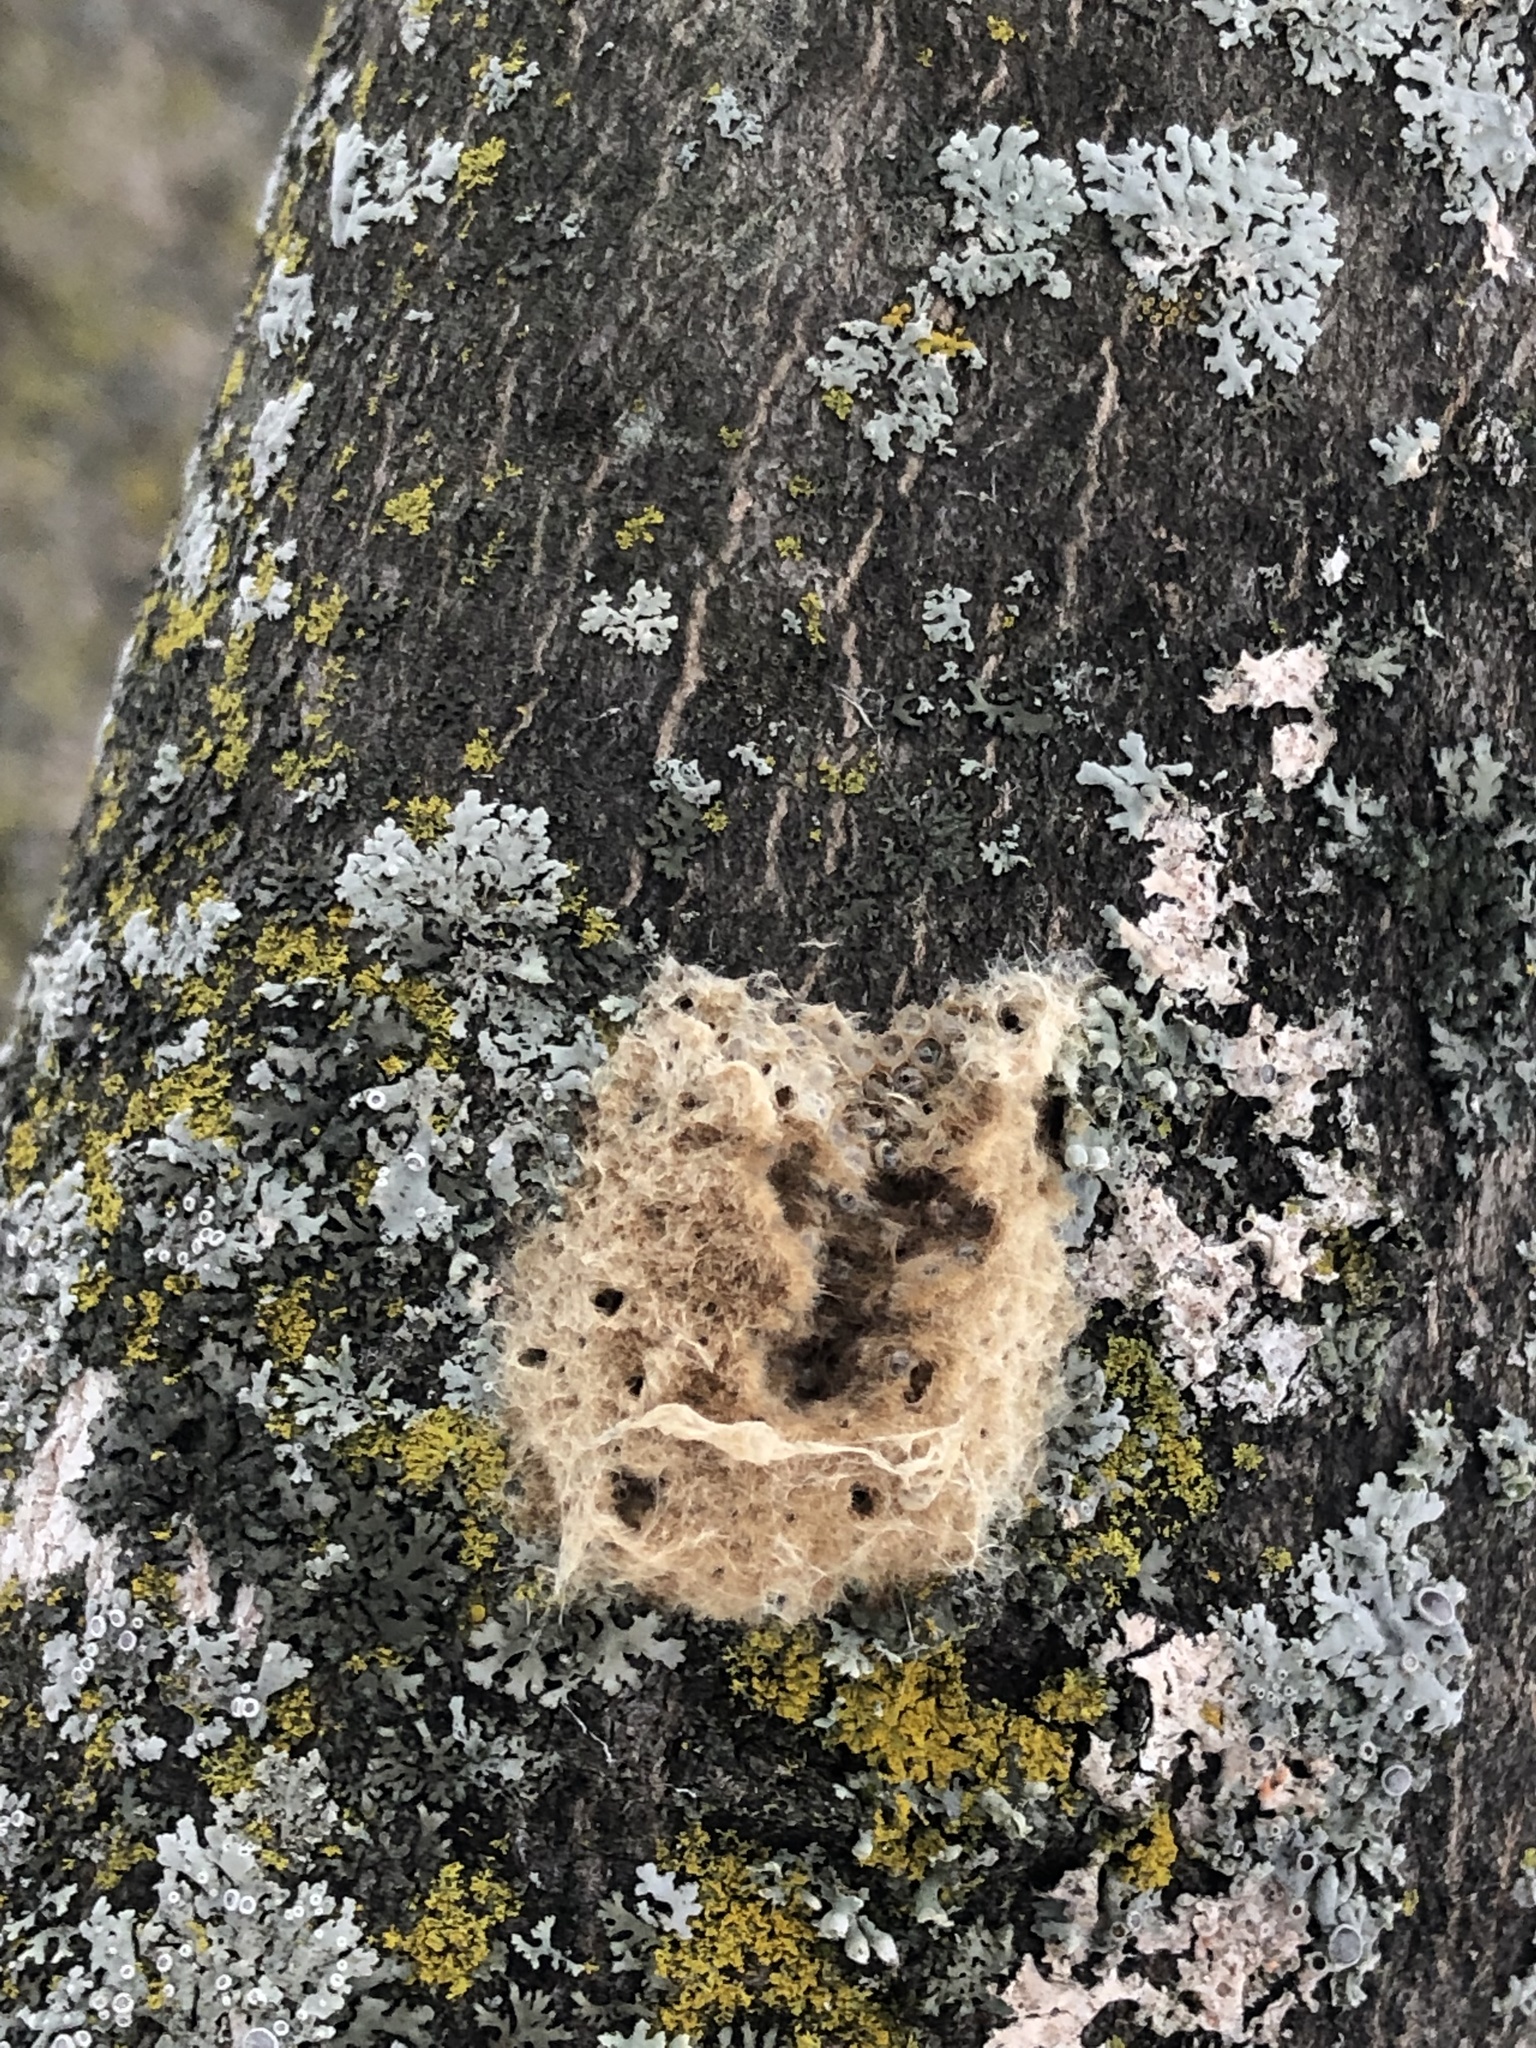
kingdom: Animalia
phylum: Arthropoda
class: Insecta
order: Lepidoptera
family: Erebidae
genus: Lymantria
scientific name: Lymantria dispar
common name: Gypsy moth
